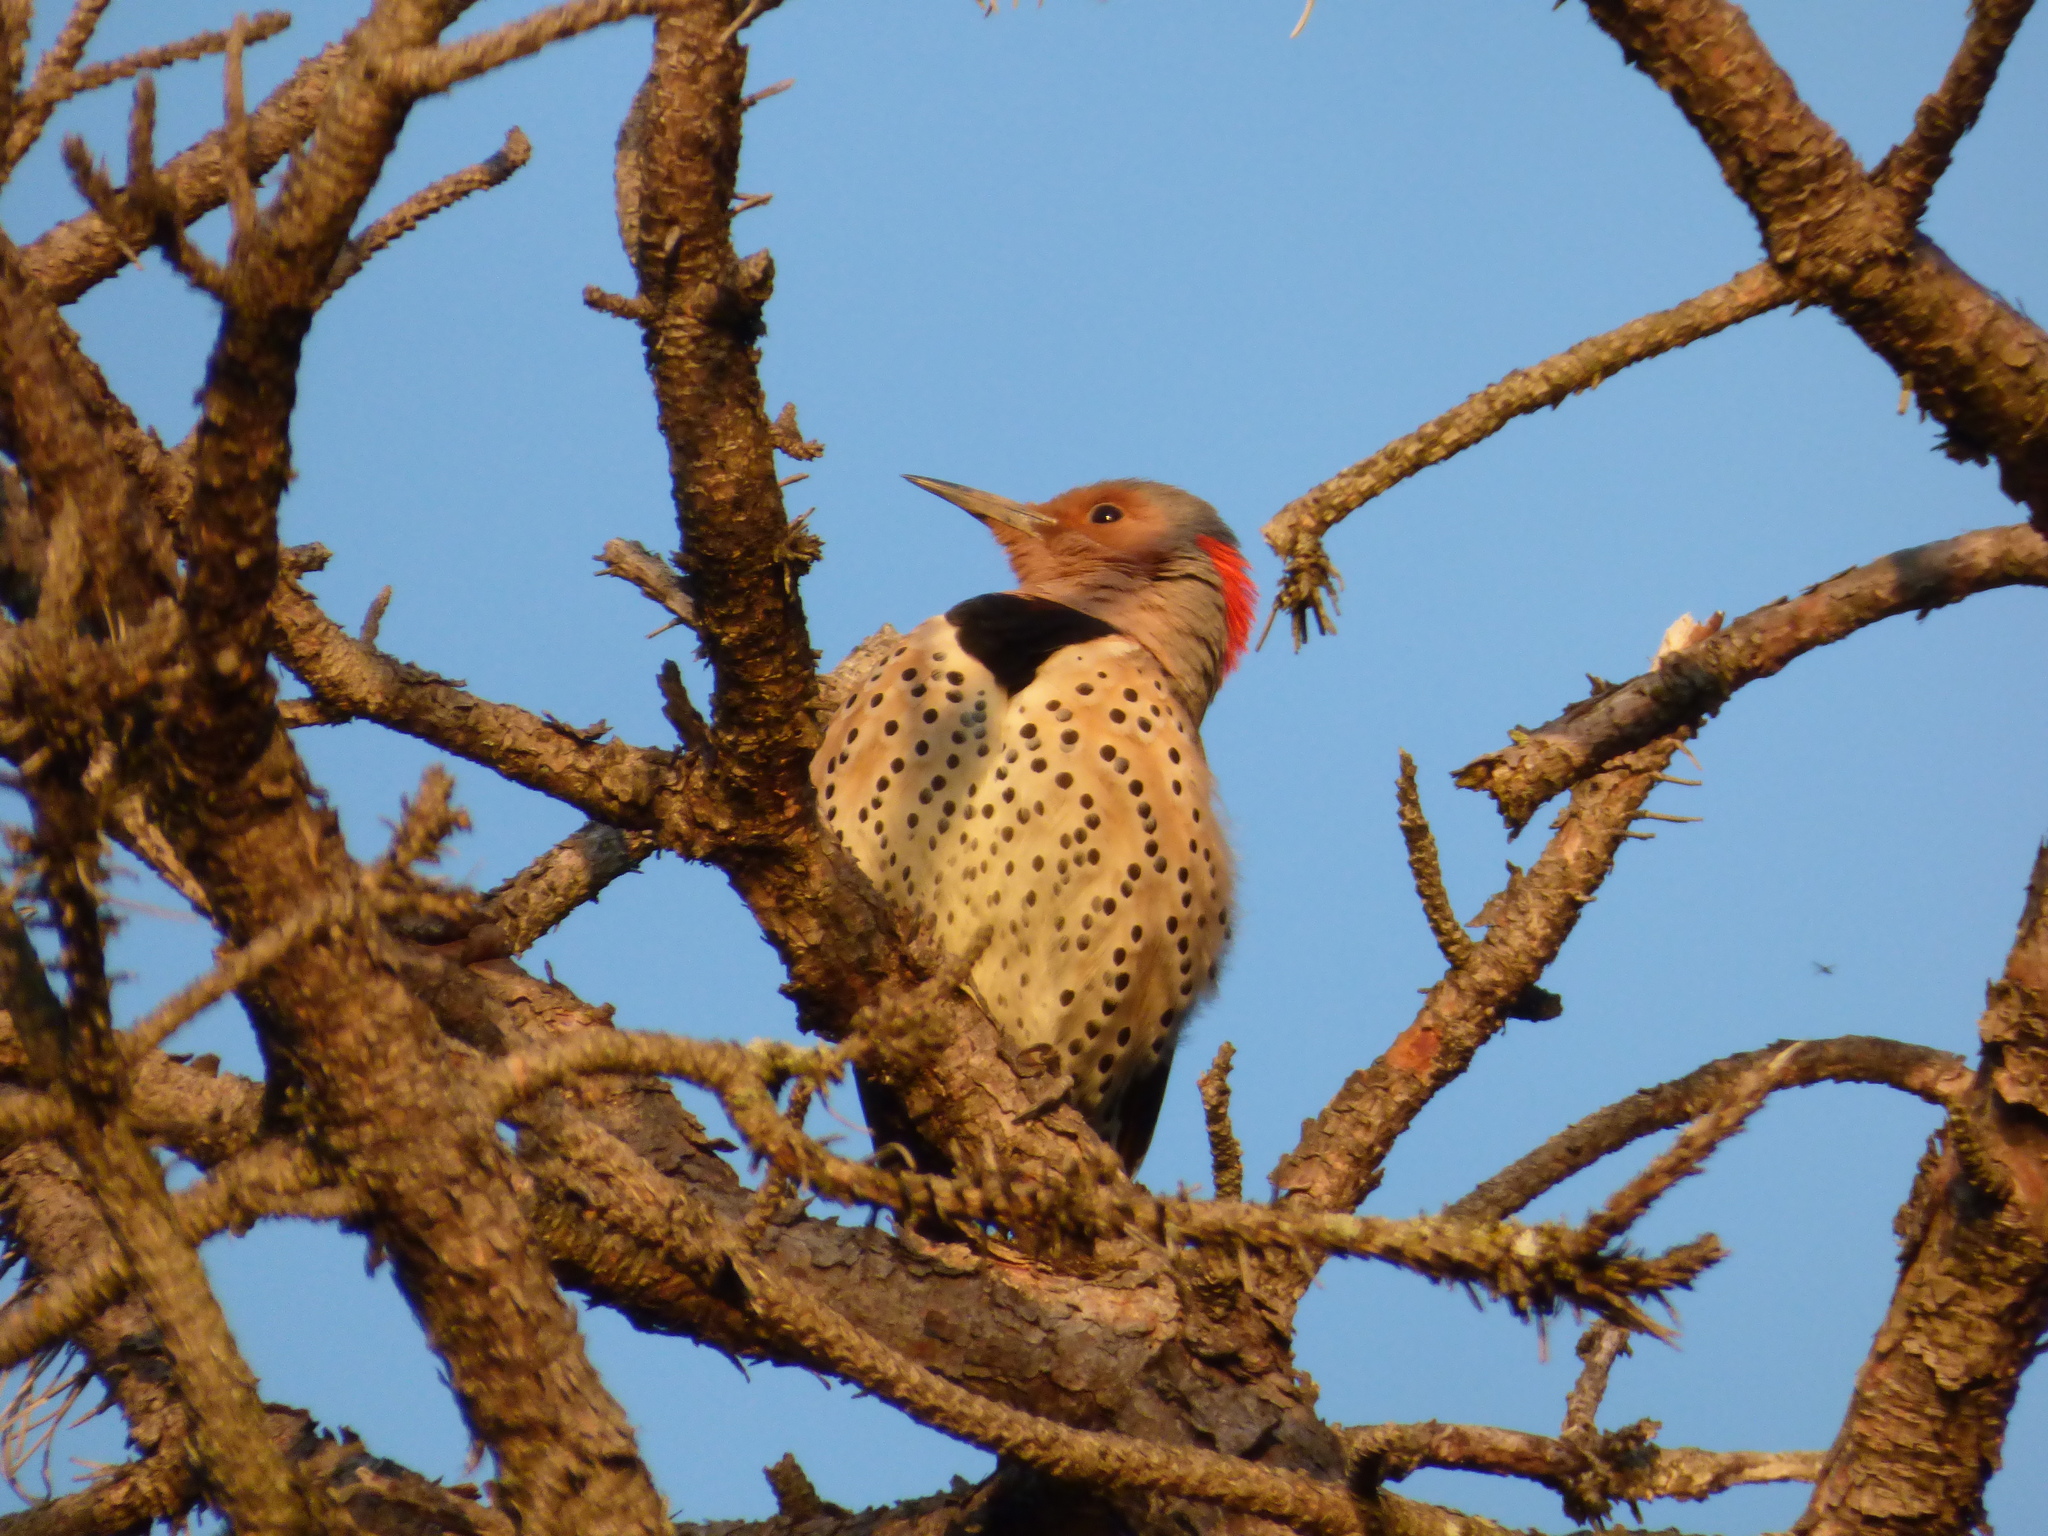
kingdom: Animalia
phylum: Chordata
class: Aves
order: Piciformes
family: Picidae
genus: Colaptes
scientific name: Colaptes auratus
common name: Northern flicker
